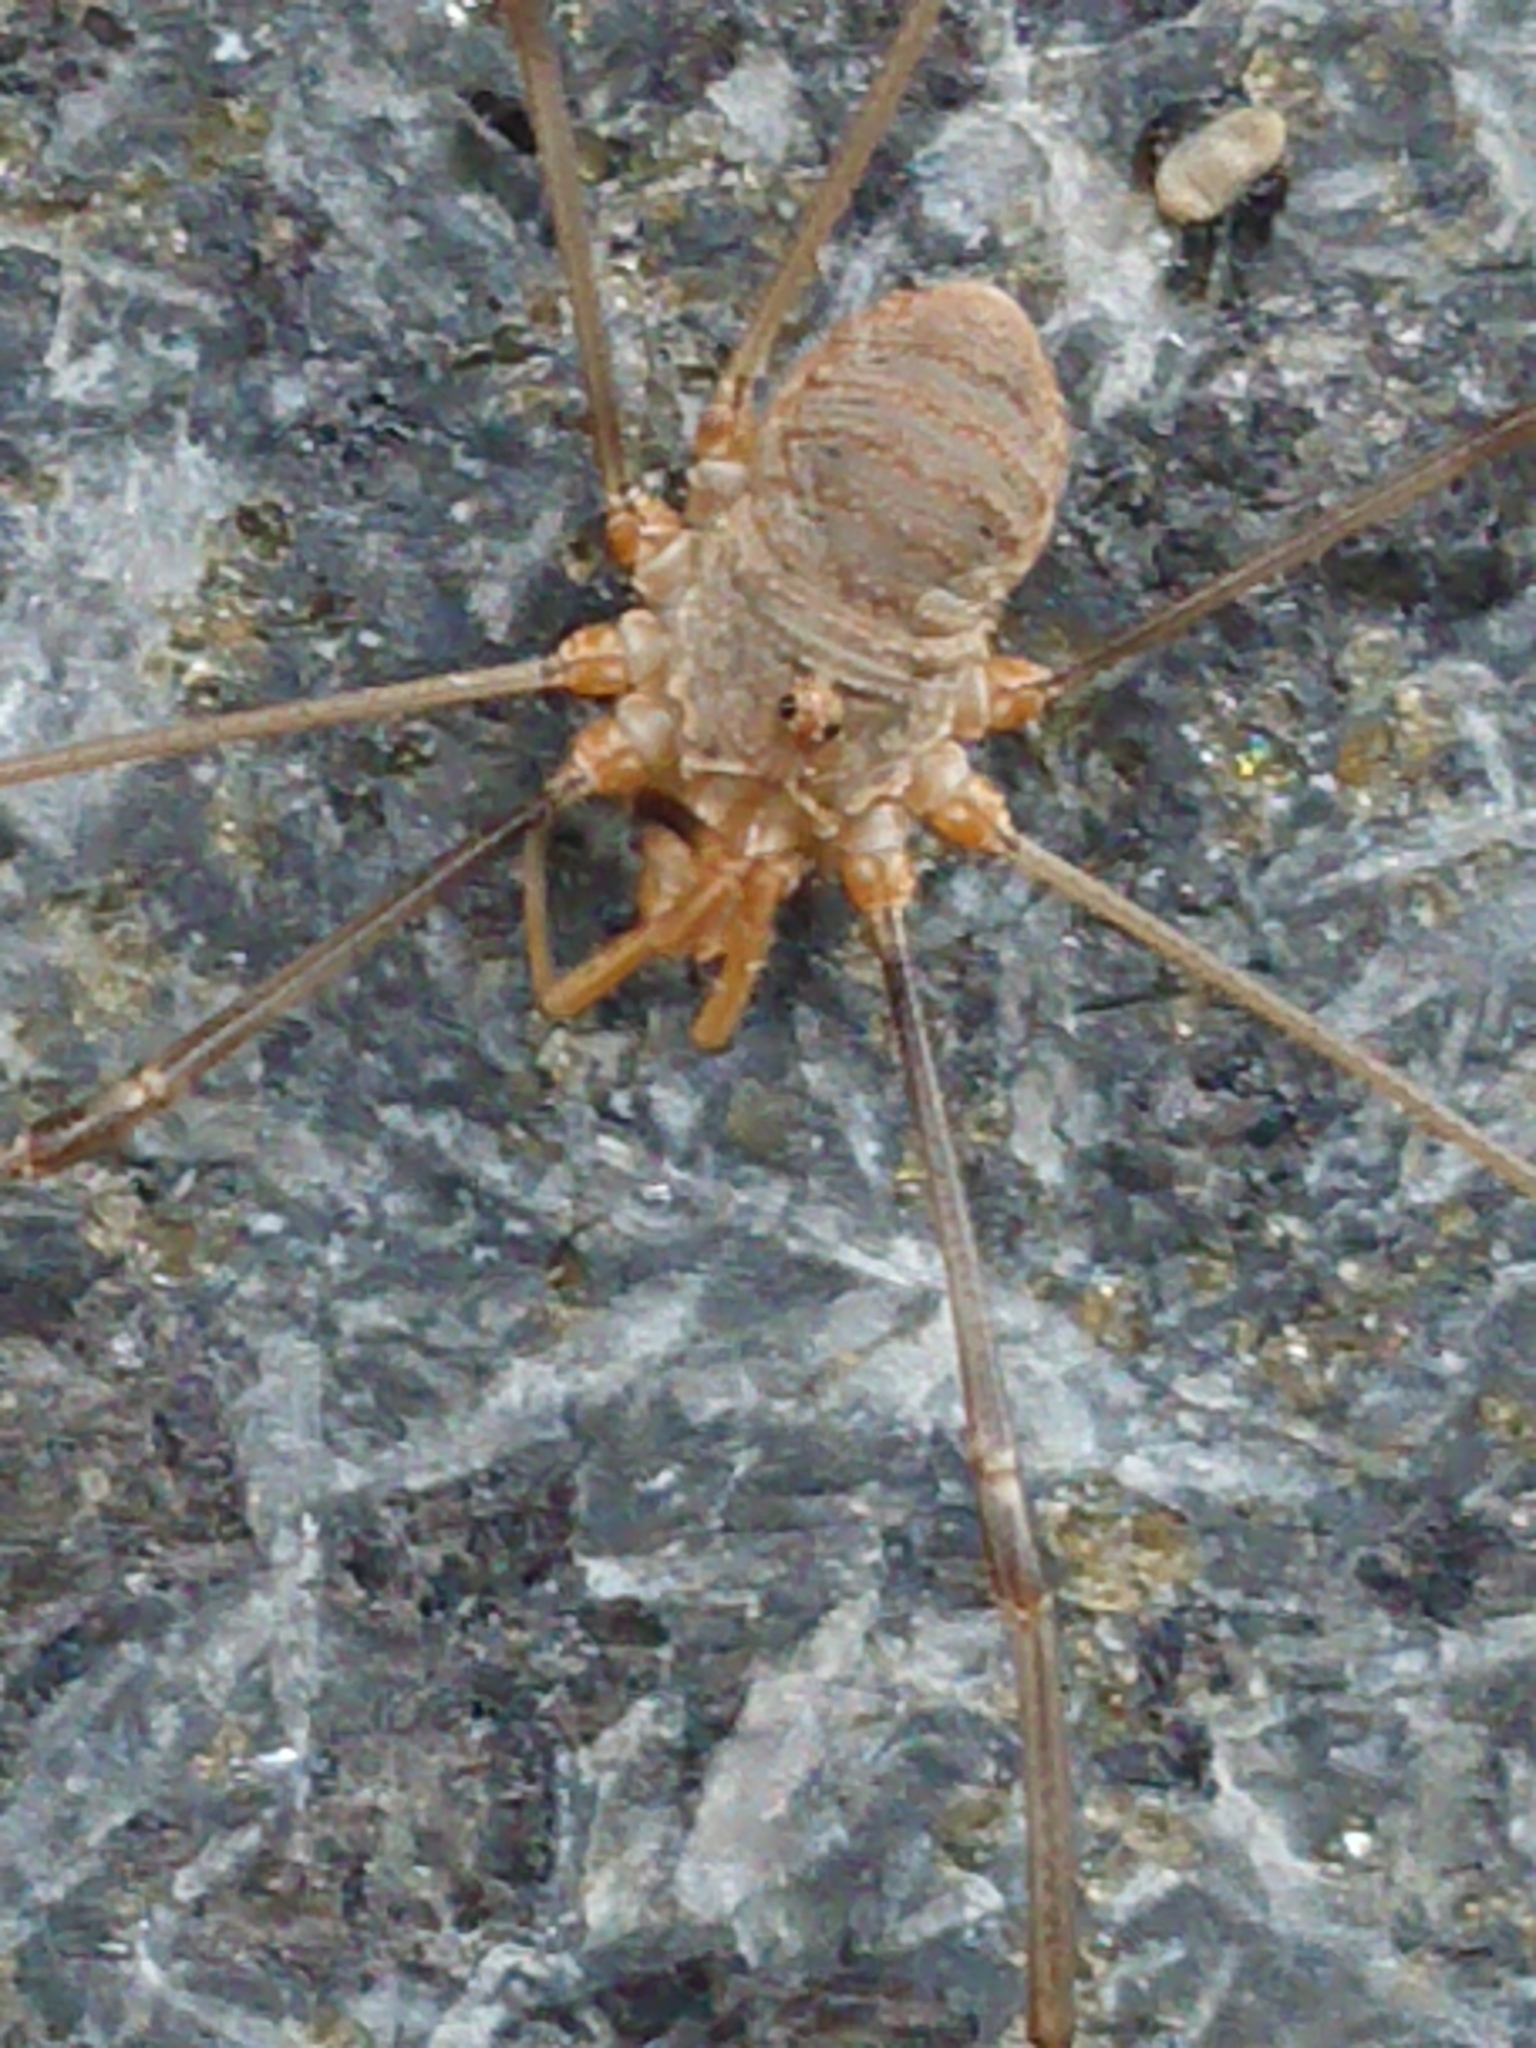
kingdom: Animalia
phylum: Arthropoda
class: Arachnida
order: Opiliones
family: Phalangiidae
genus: Phalangium
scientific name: Phalangium opilio
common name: Daddy longleg
